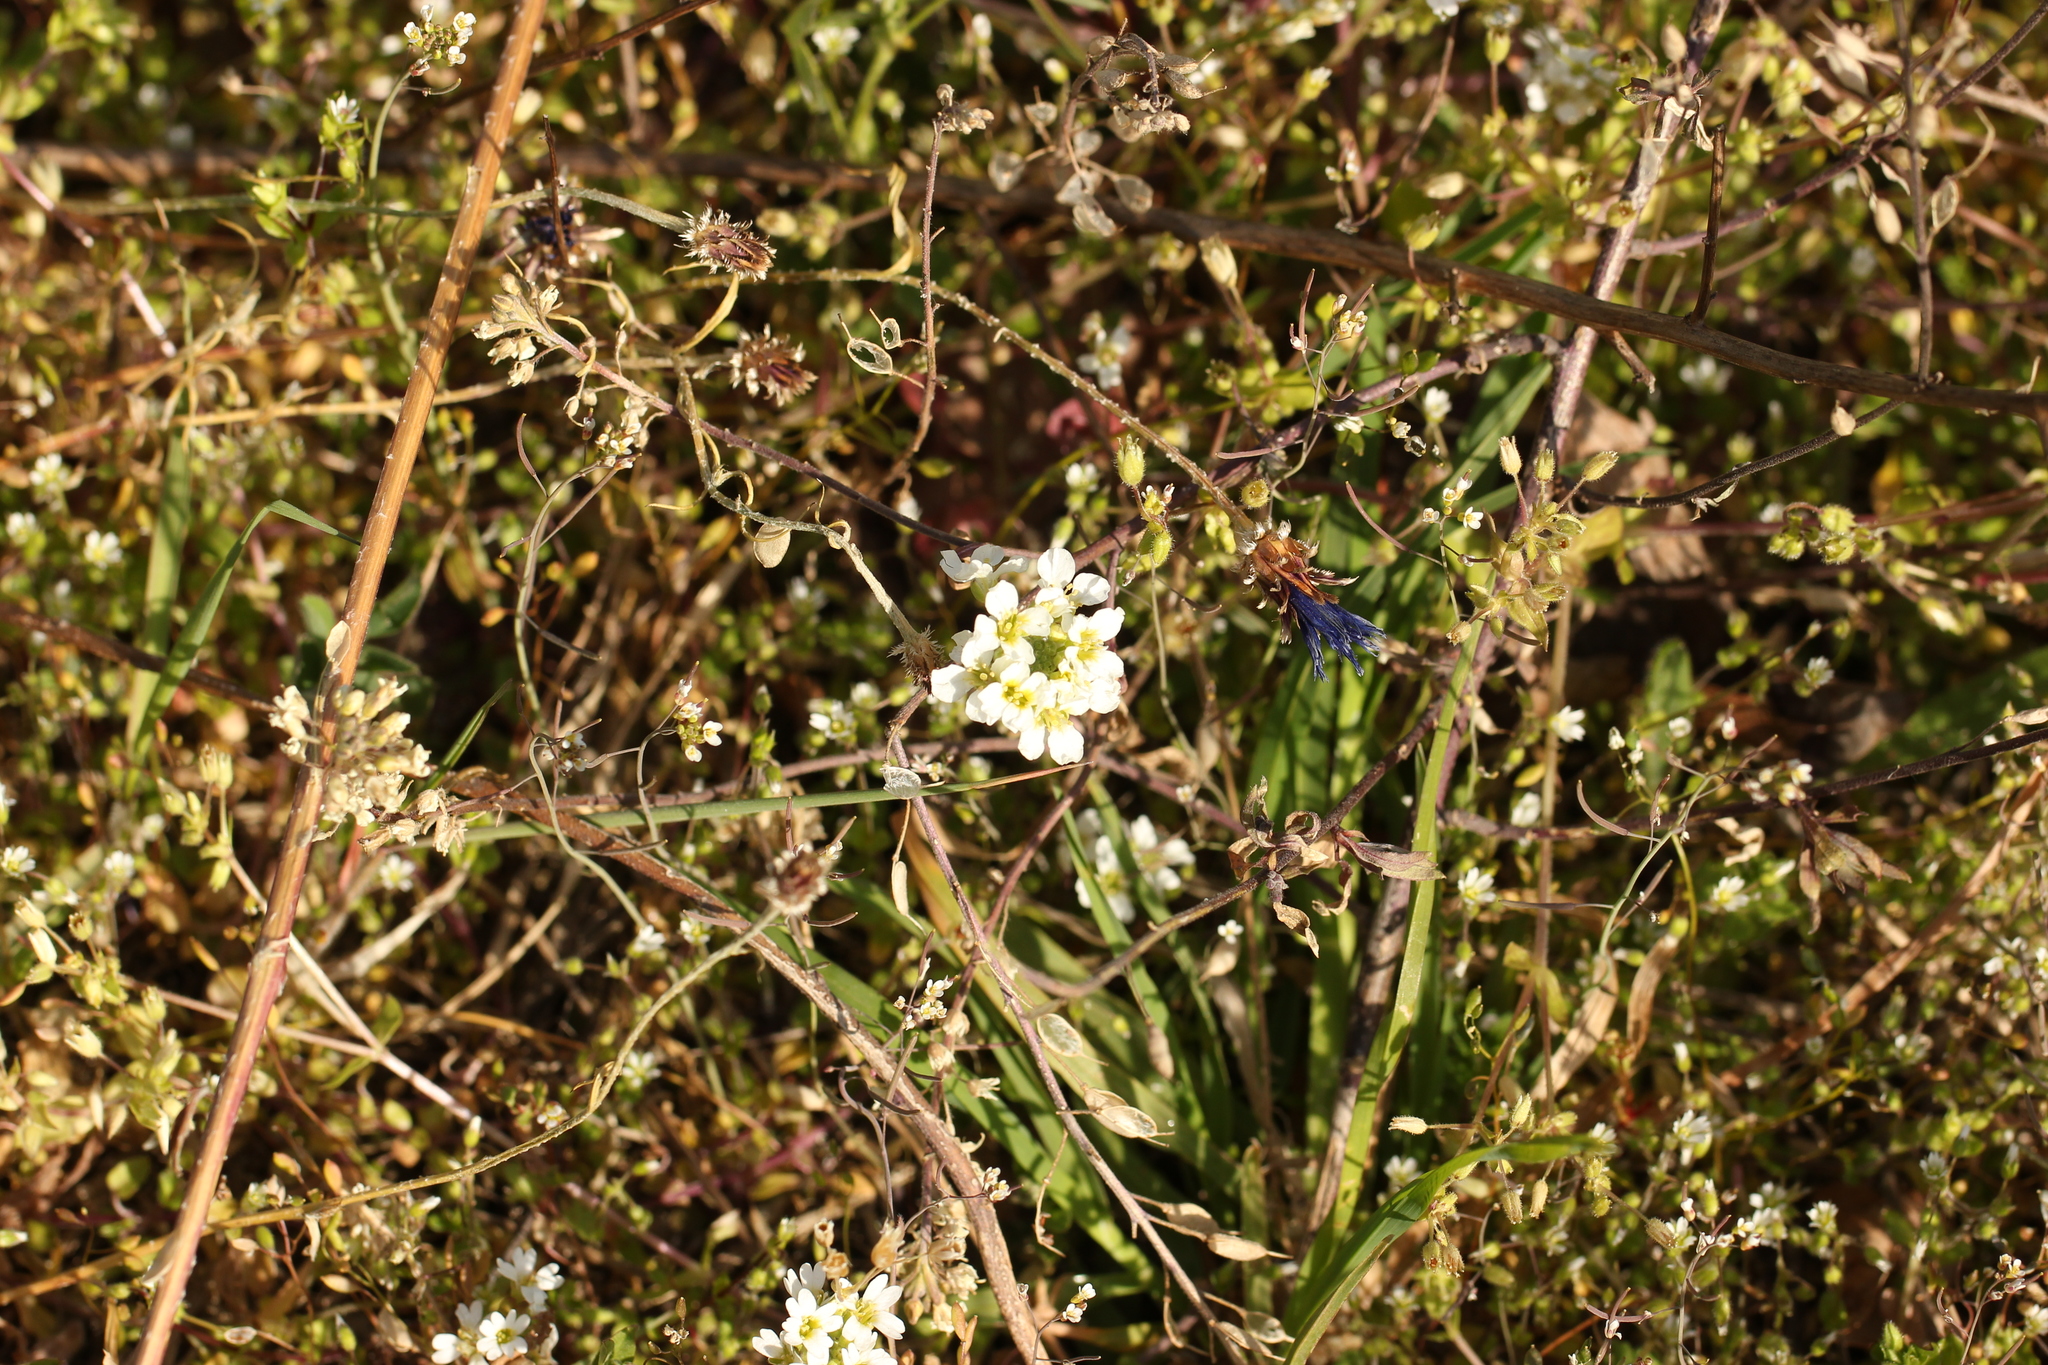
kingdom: Plantae
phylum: Tracheophyta
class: Magnoliopsida
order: Brassicales
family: Brassicaceae
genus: Berteroa
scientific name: Berteroa incana
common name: Hoary alison
